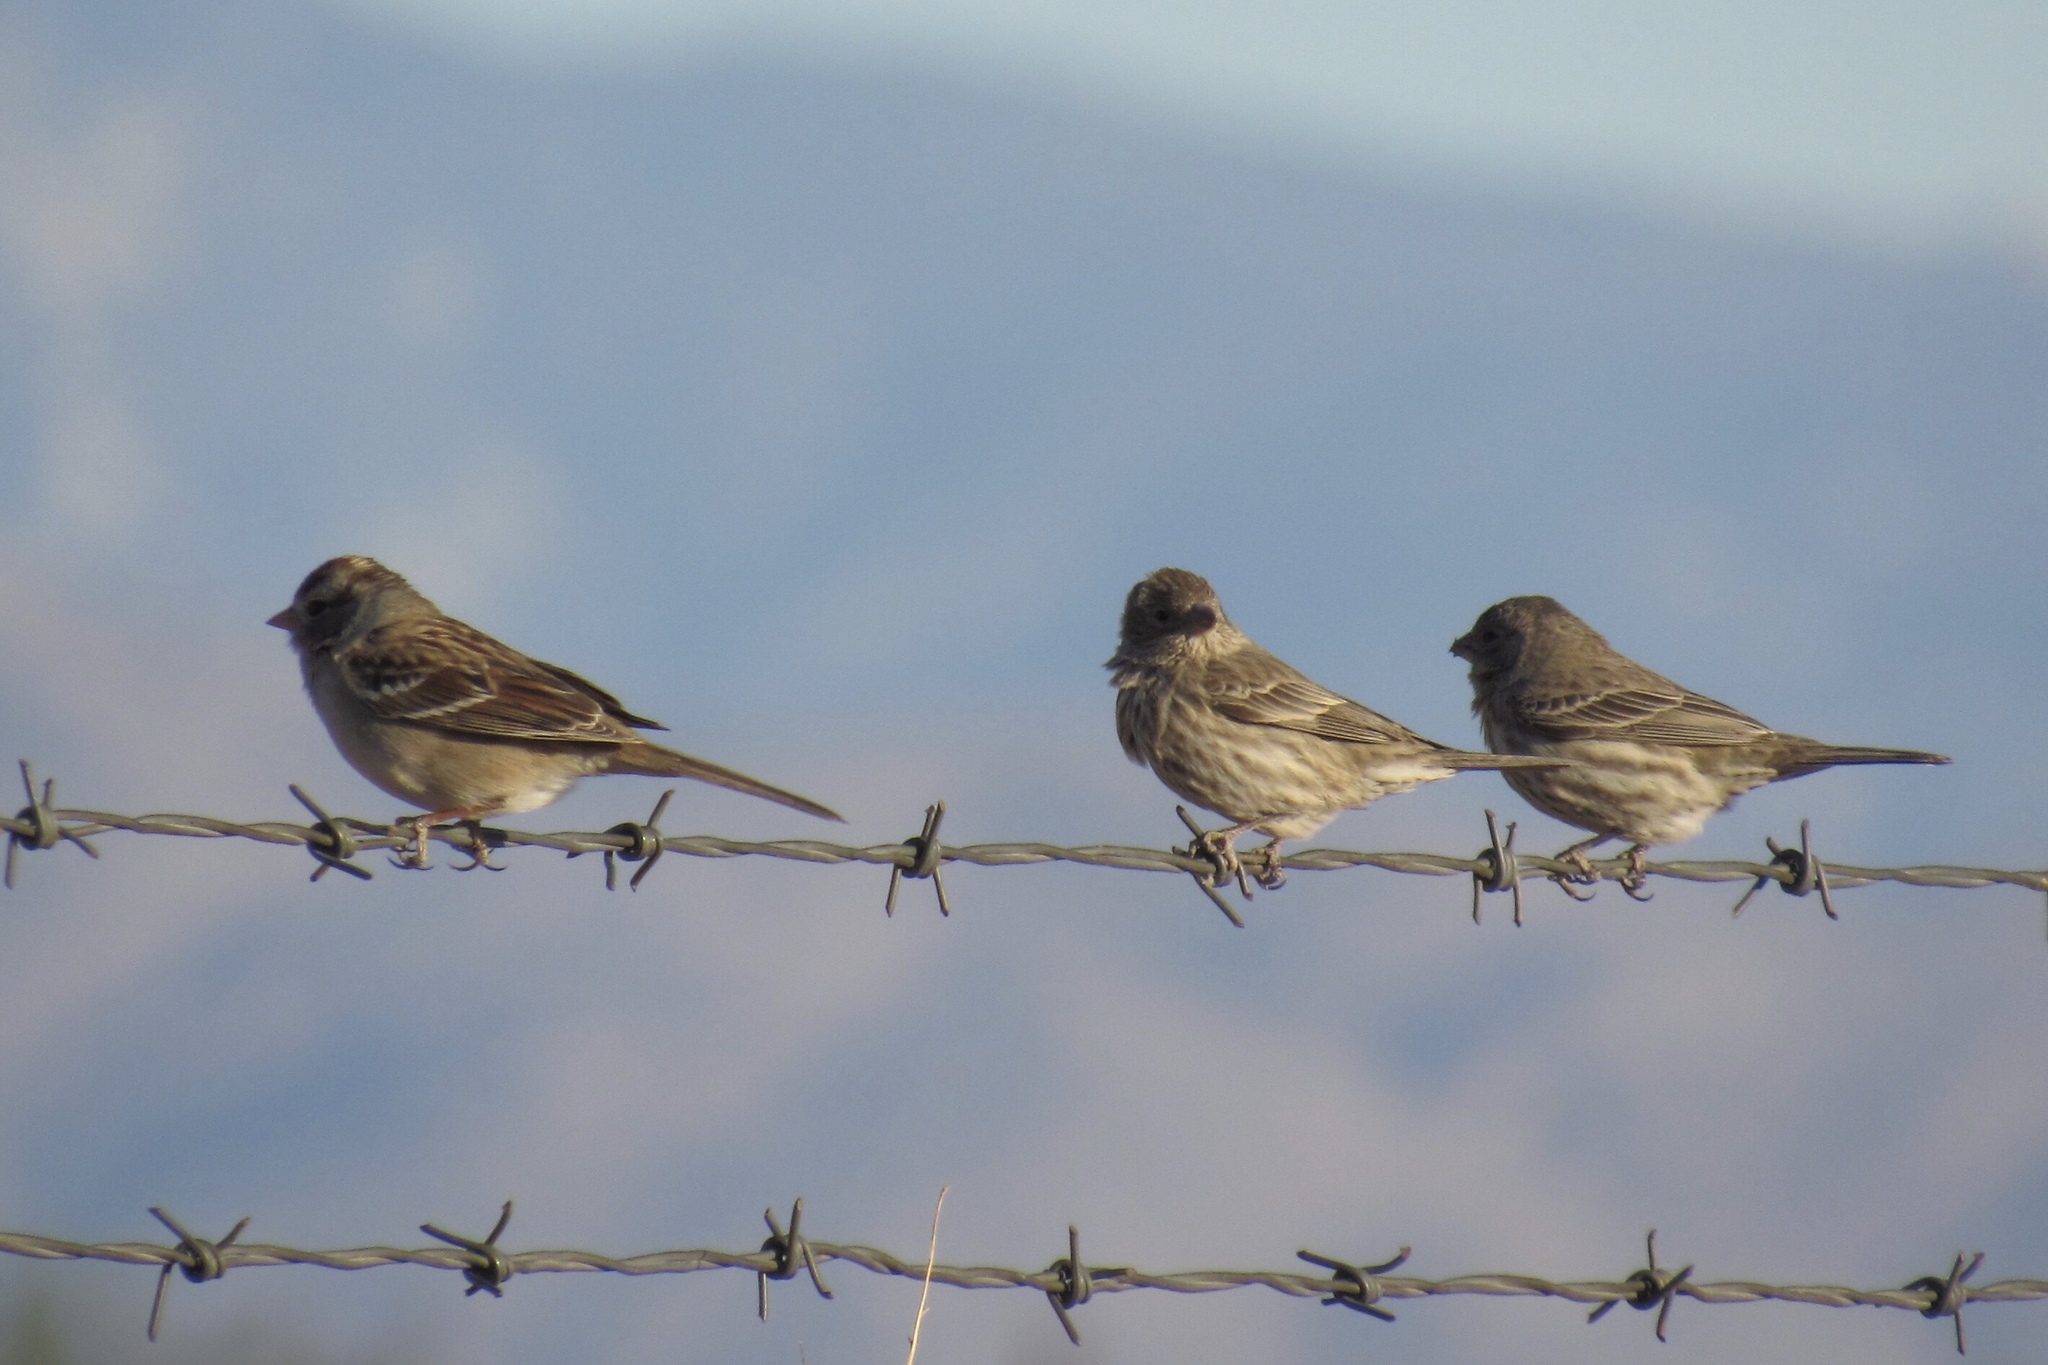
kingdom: Animalia
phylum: Chordata
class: Aves
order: Passeriformes
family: Fringillidae
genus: Haemorhous
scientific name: Haemorhous mexicanus
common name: House finch
